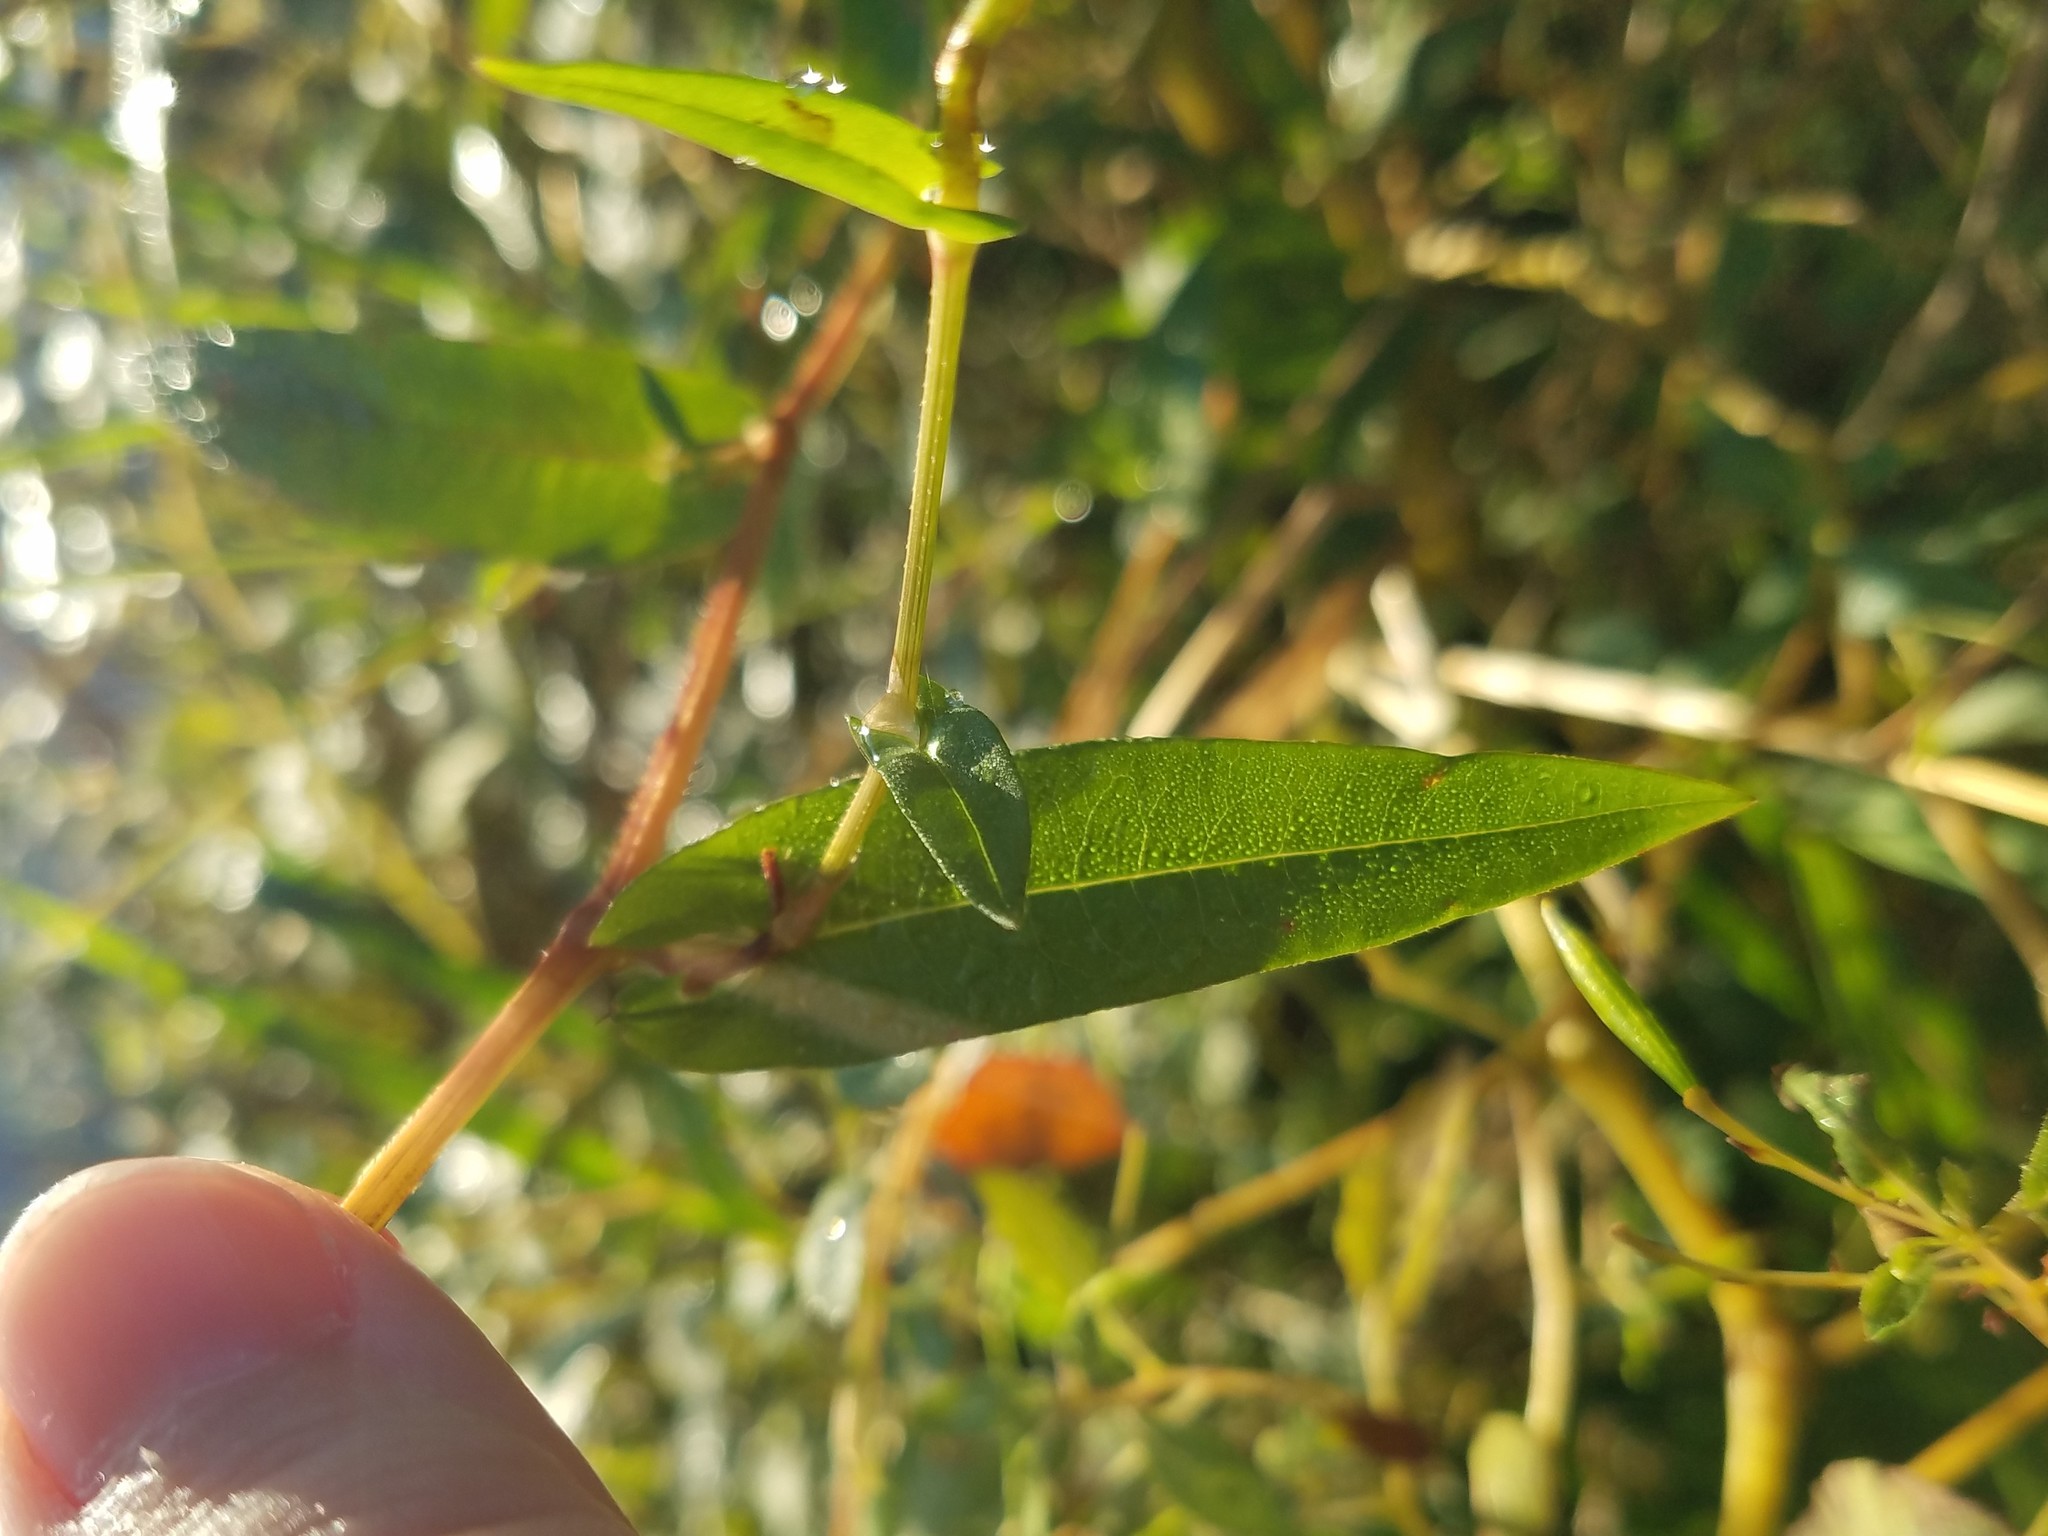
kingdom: Plantae
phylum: Tracheophyta
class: Magnoliopsida
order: Caryophyllales
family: Polygonaceae
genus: Persicaria
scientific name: Persicaria sagittata
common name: American tearthumb
